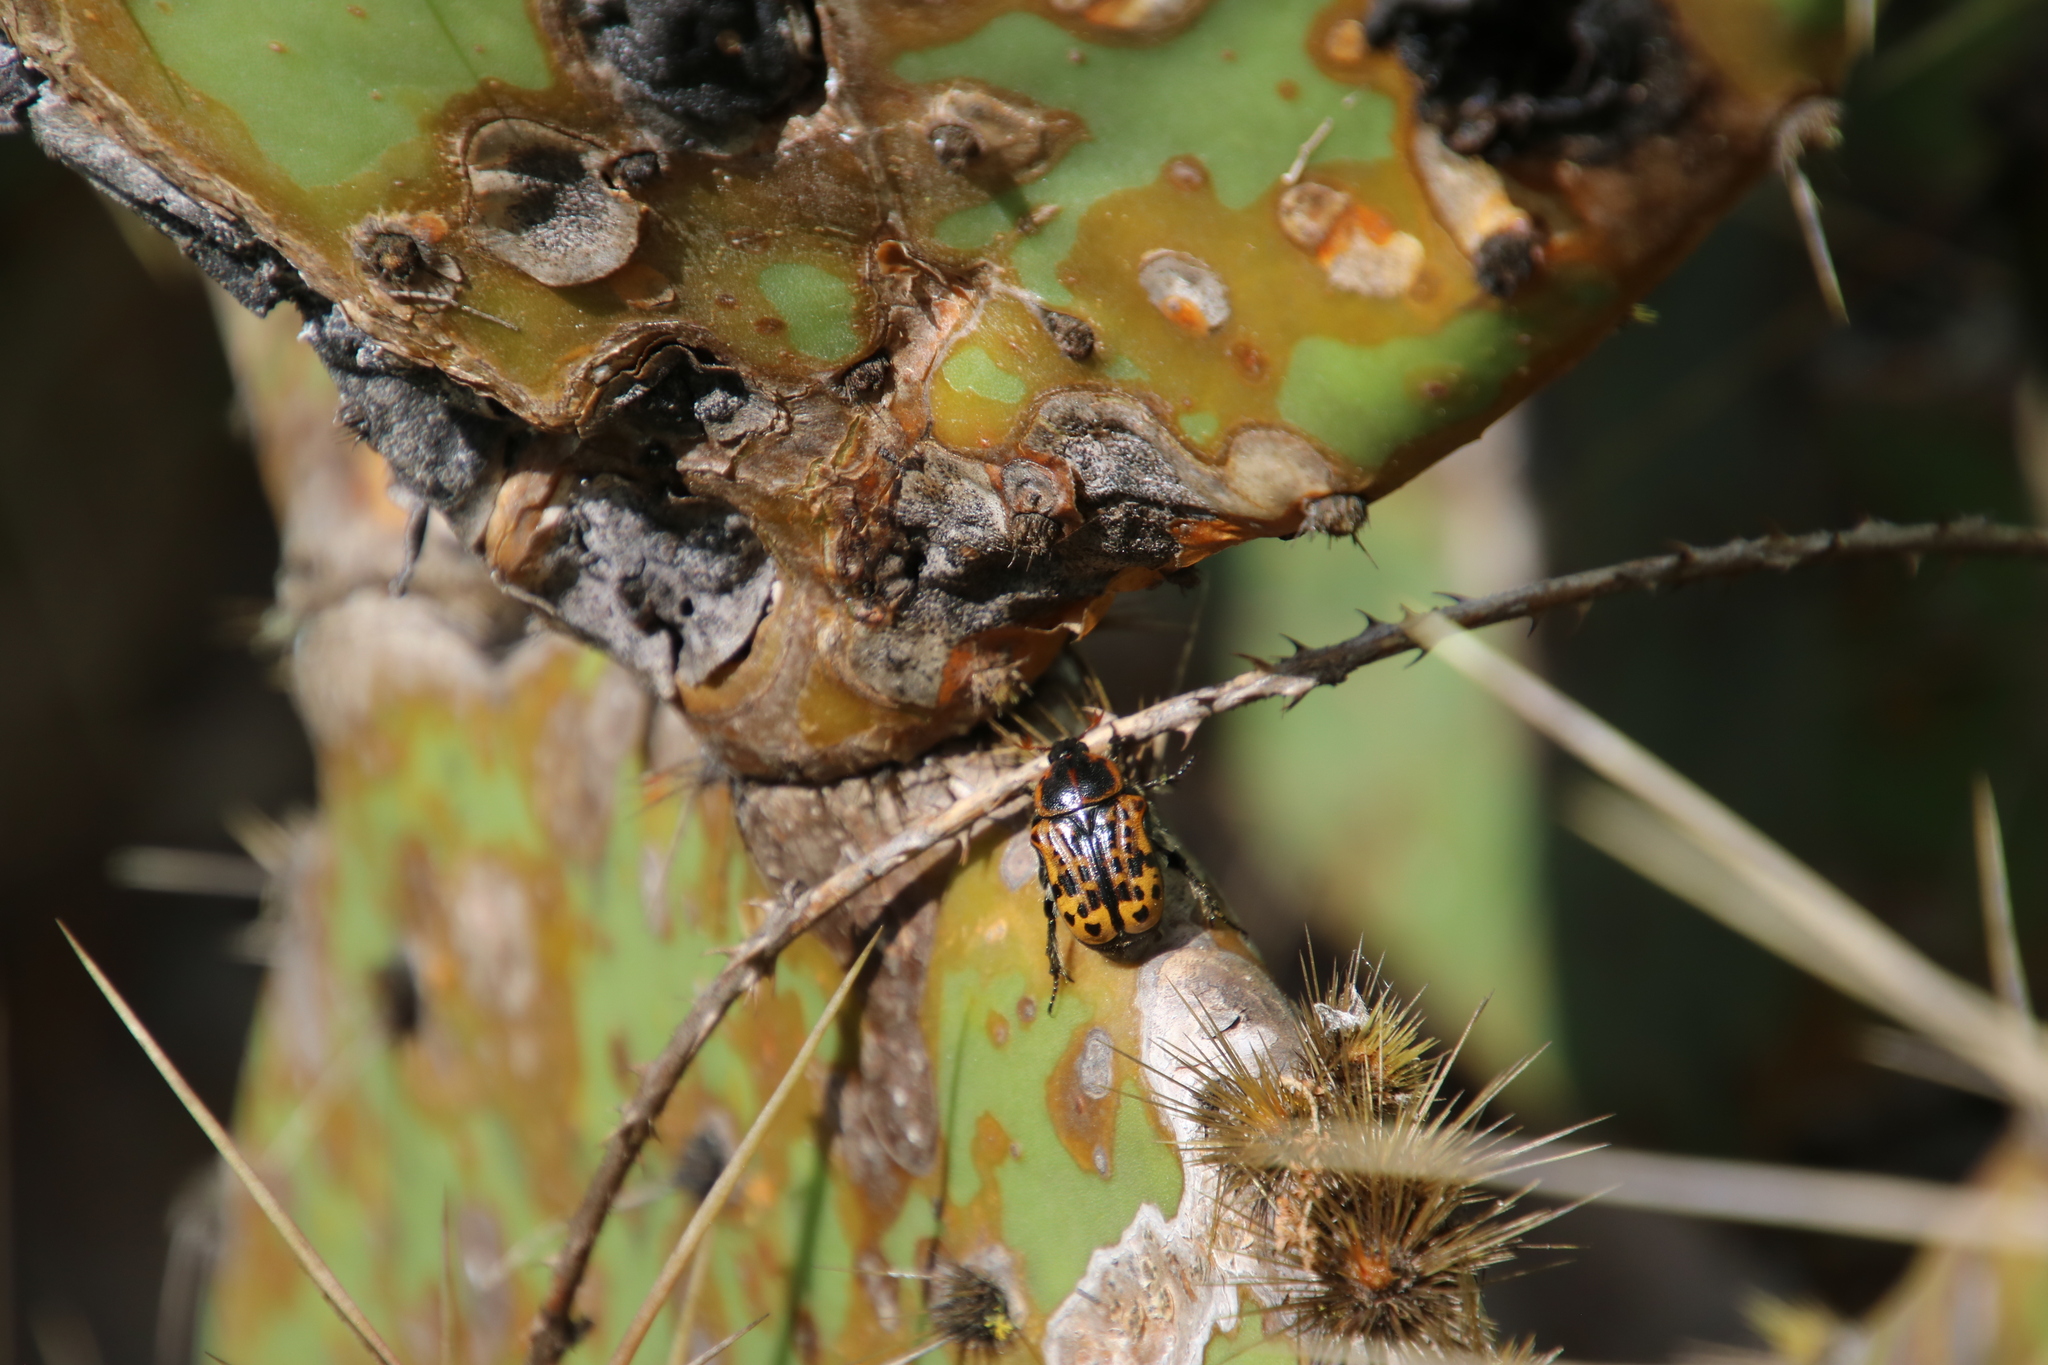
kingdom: Animalia
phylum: Arthropoda
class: Insecta
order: Coleoptera
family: Scarabaeidae
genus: Euphoria
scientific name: Euphoria kernii
